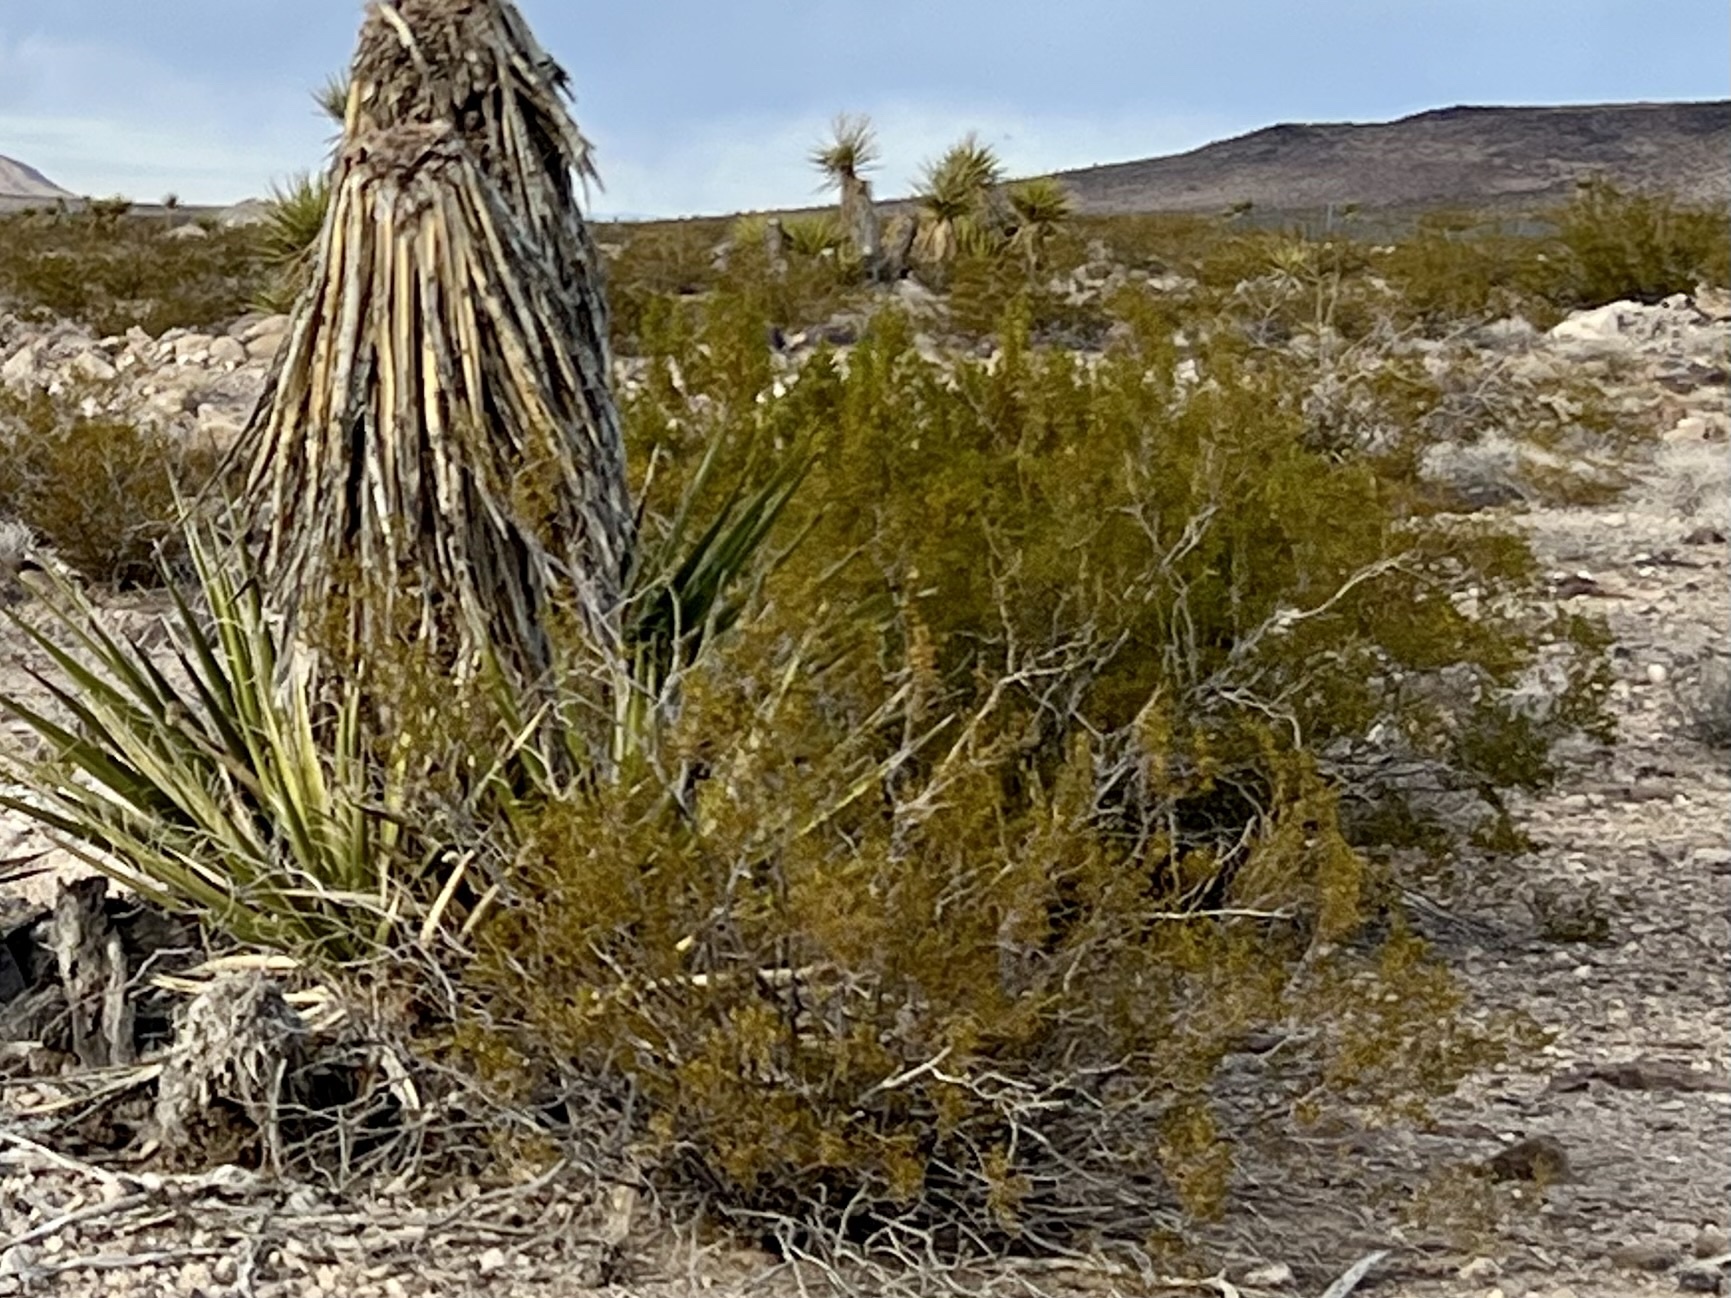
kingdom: Plantae
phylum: Tracheophyta
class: Magnoliopsida
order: Zygophyllales
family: Zygophyllaceae
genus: Larrea
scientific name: Larrea tridentata
